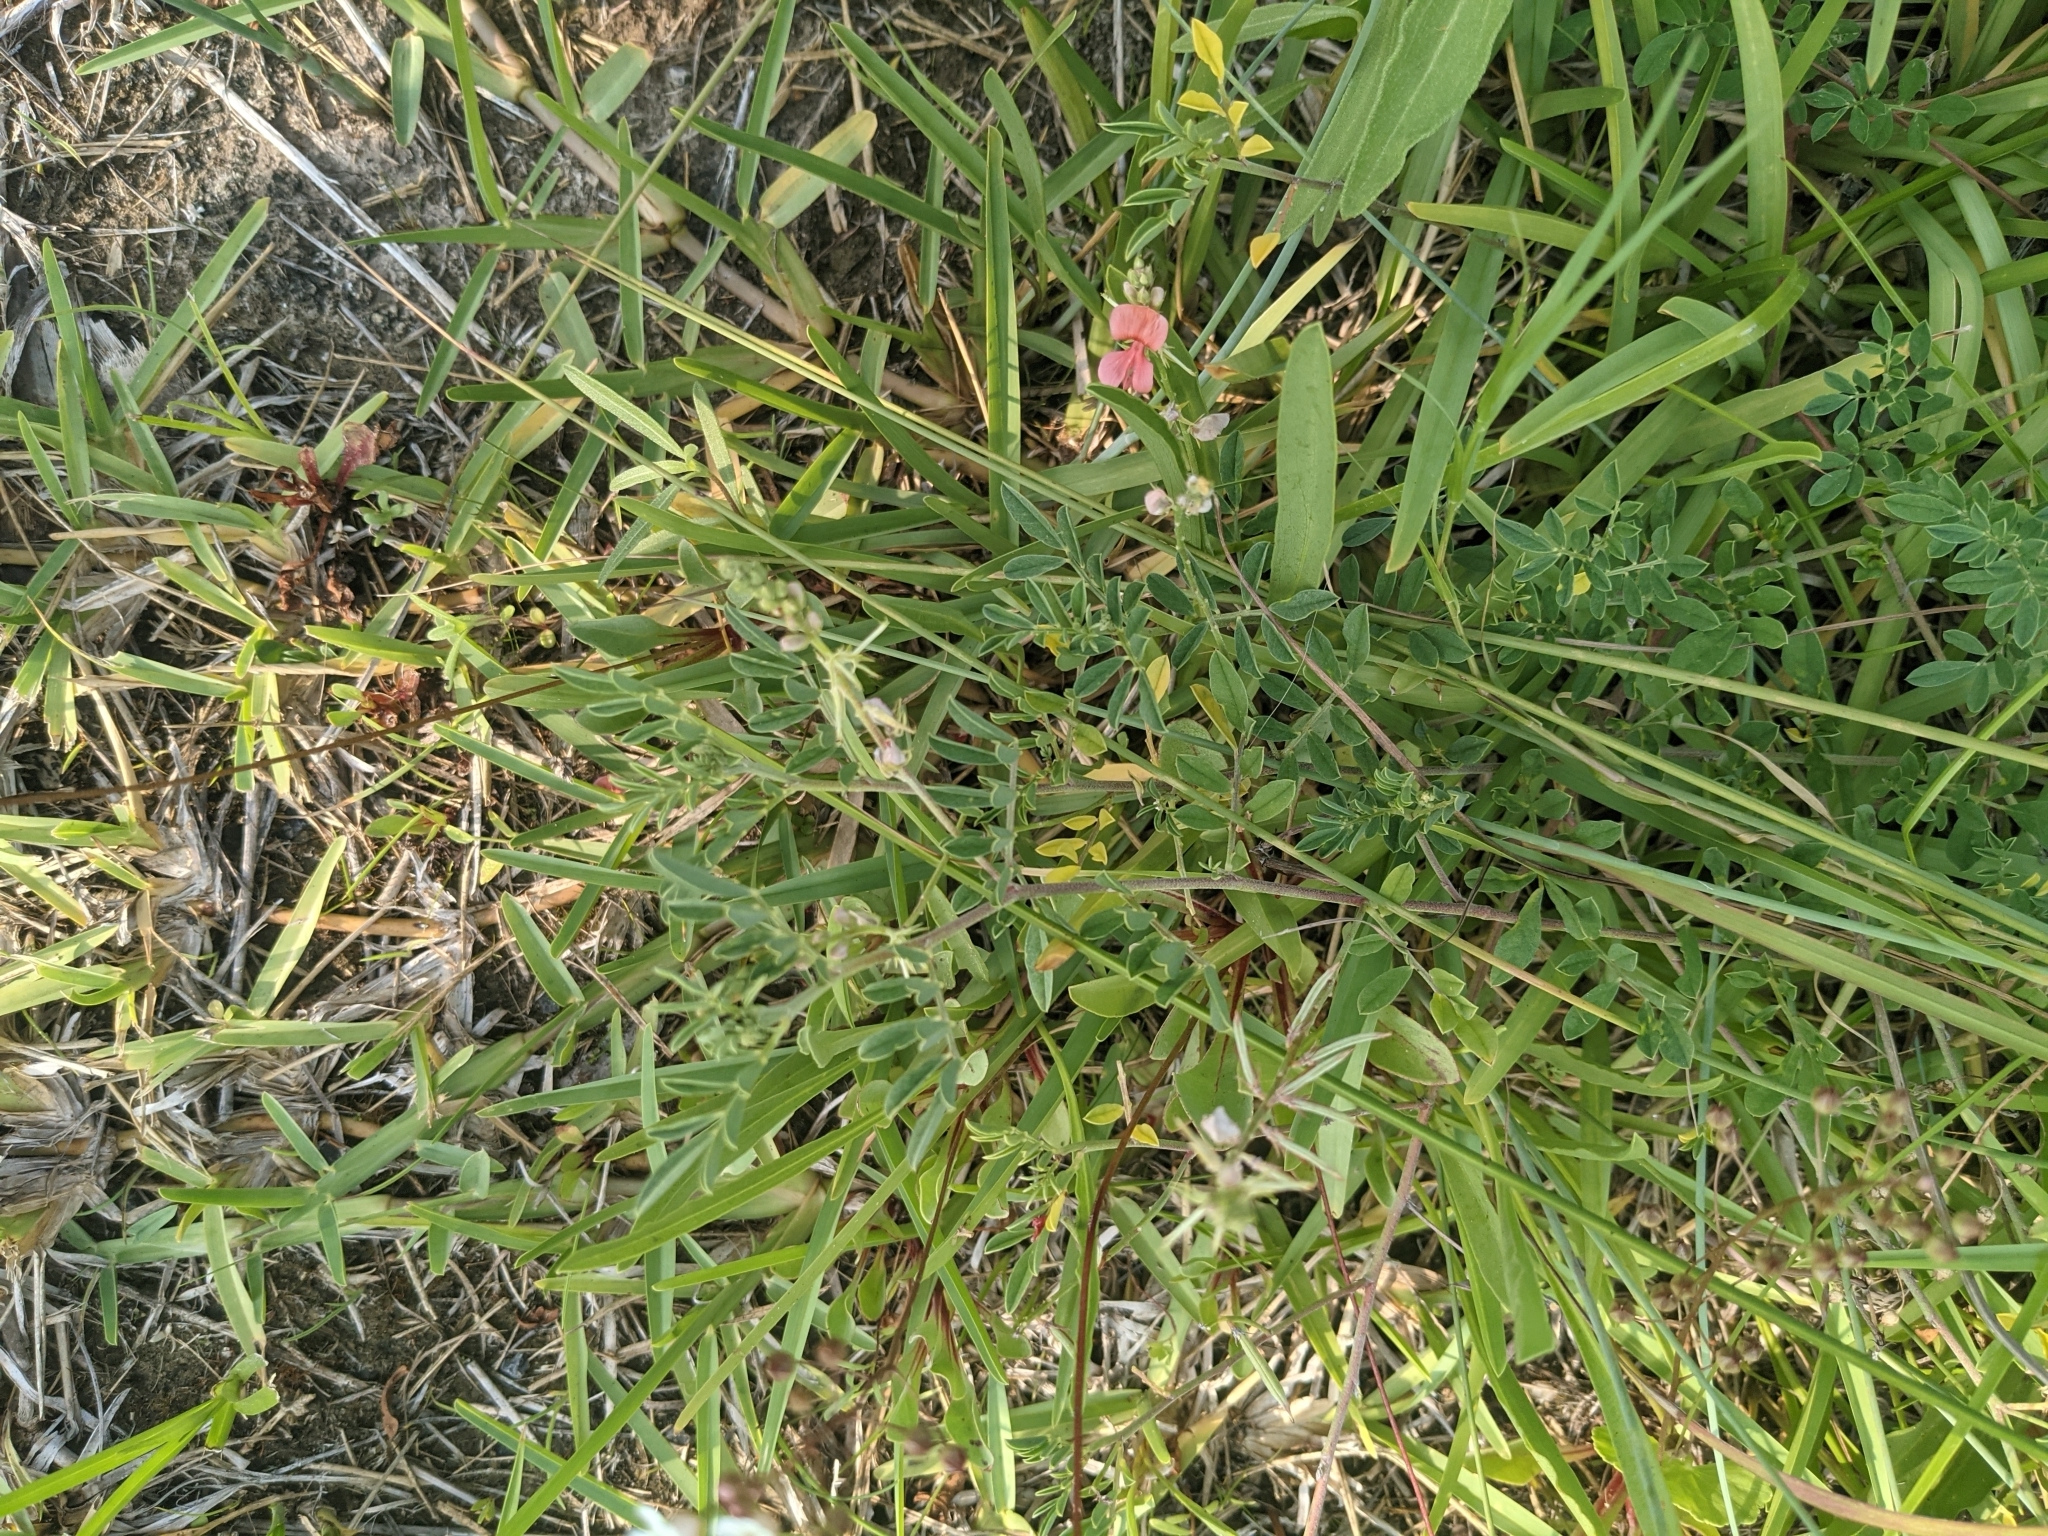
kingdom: Plantae
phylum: Tracheophyta
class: Magnoliopsida
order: Fabales
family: Fabaceae
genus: Indigofera
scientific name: Indigofera miniata
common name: Coast indigo
